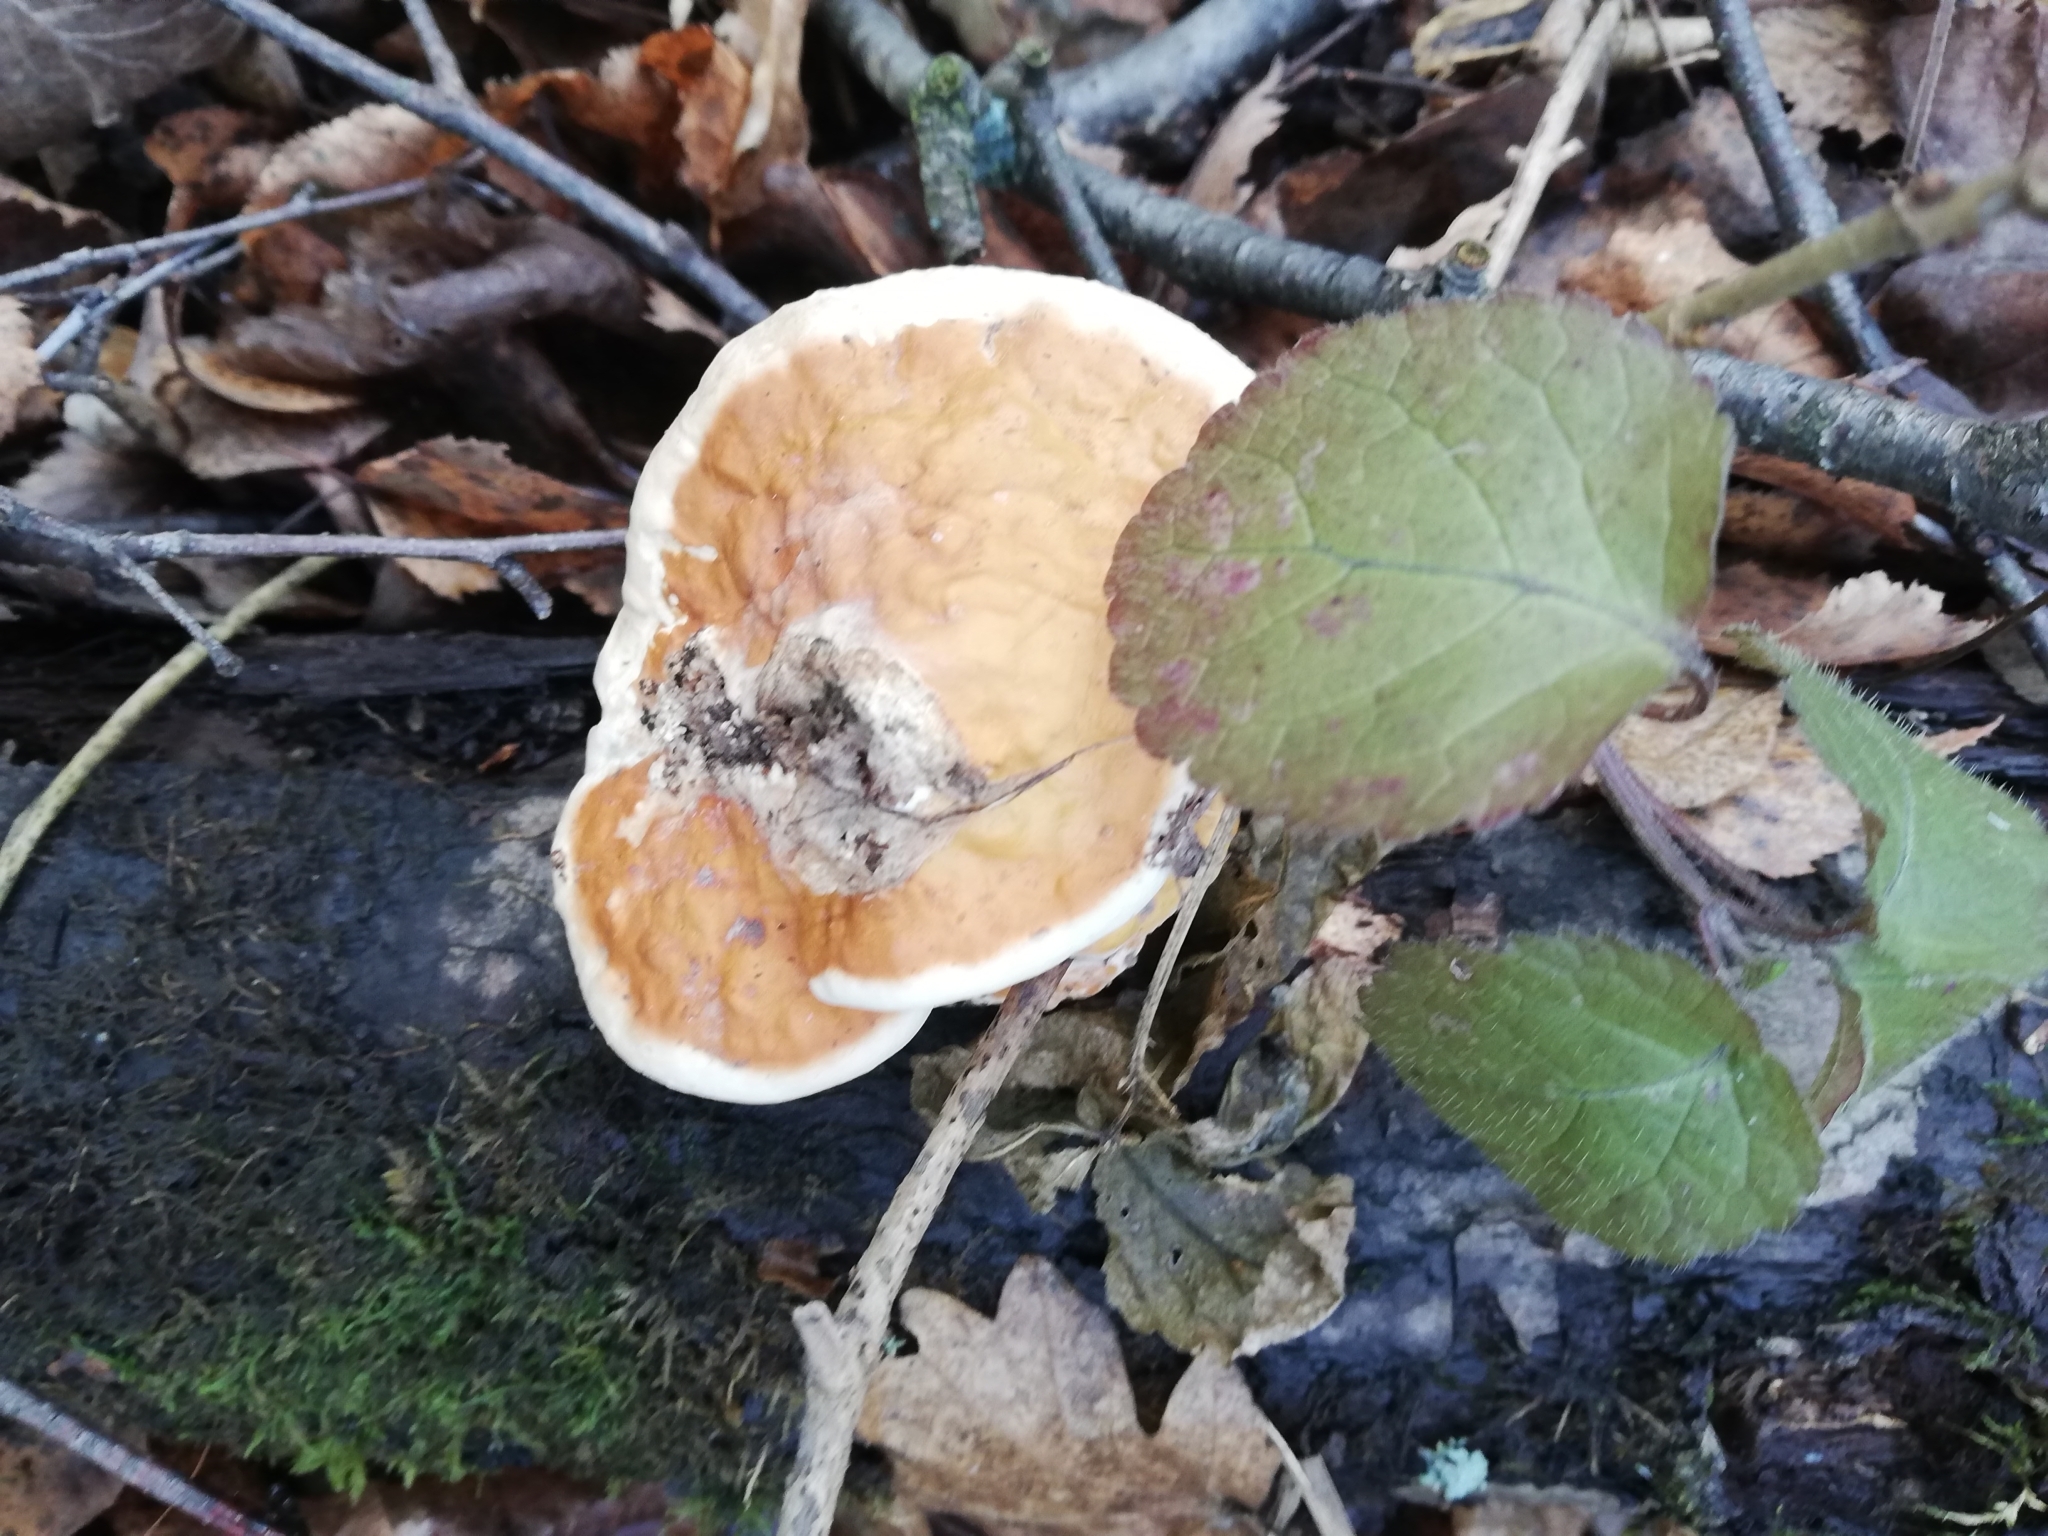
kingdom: Fungi
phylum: Basidiomycota
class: Agaricomycetes
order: Polyporales
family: Fomitopsidaceae
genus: Fomitopsis
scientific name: Fomitopsis pinicola
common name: Red-belted bracket
